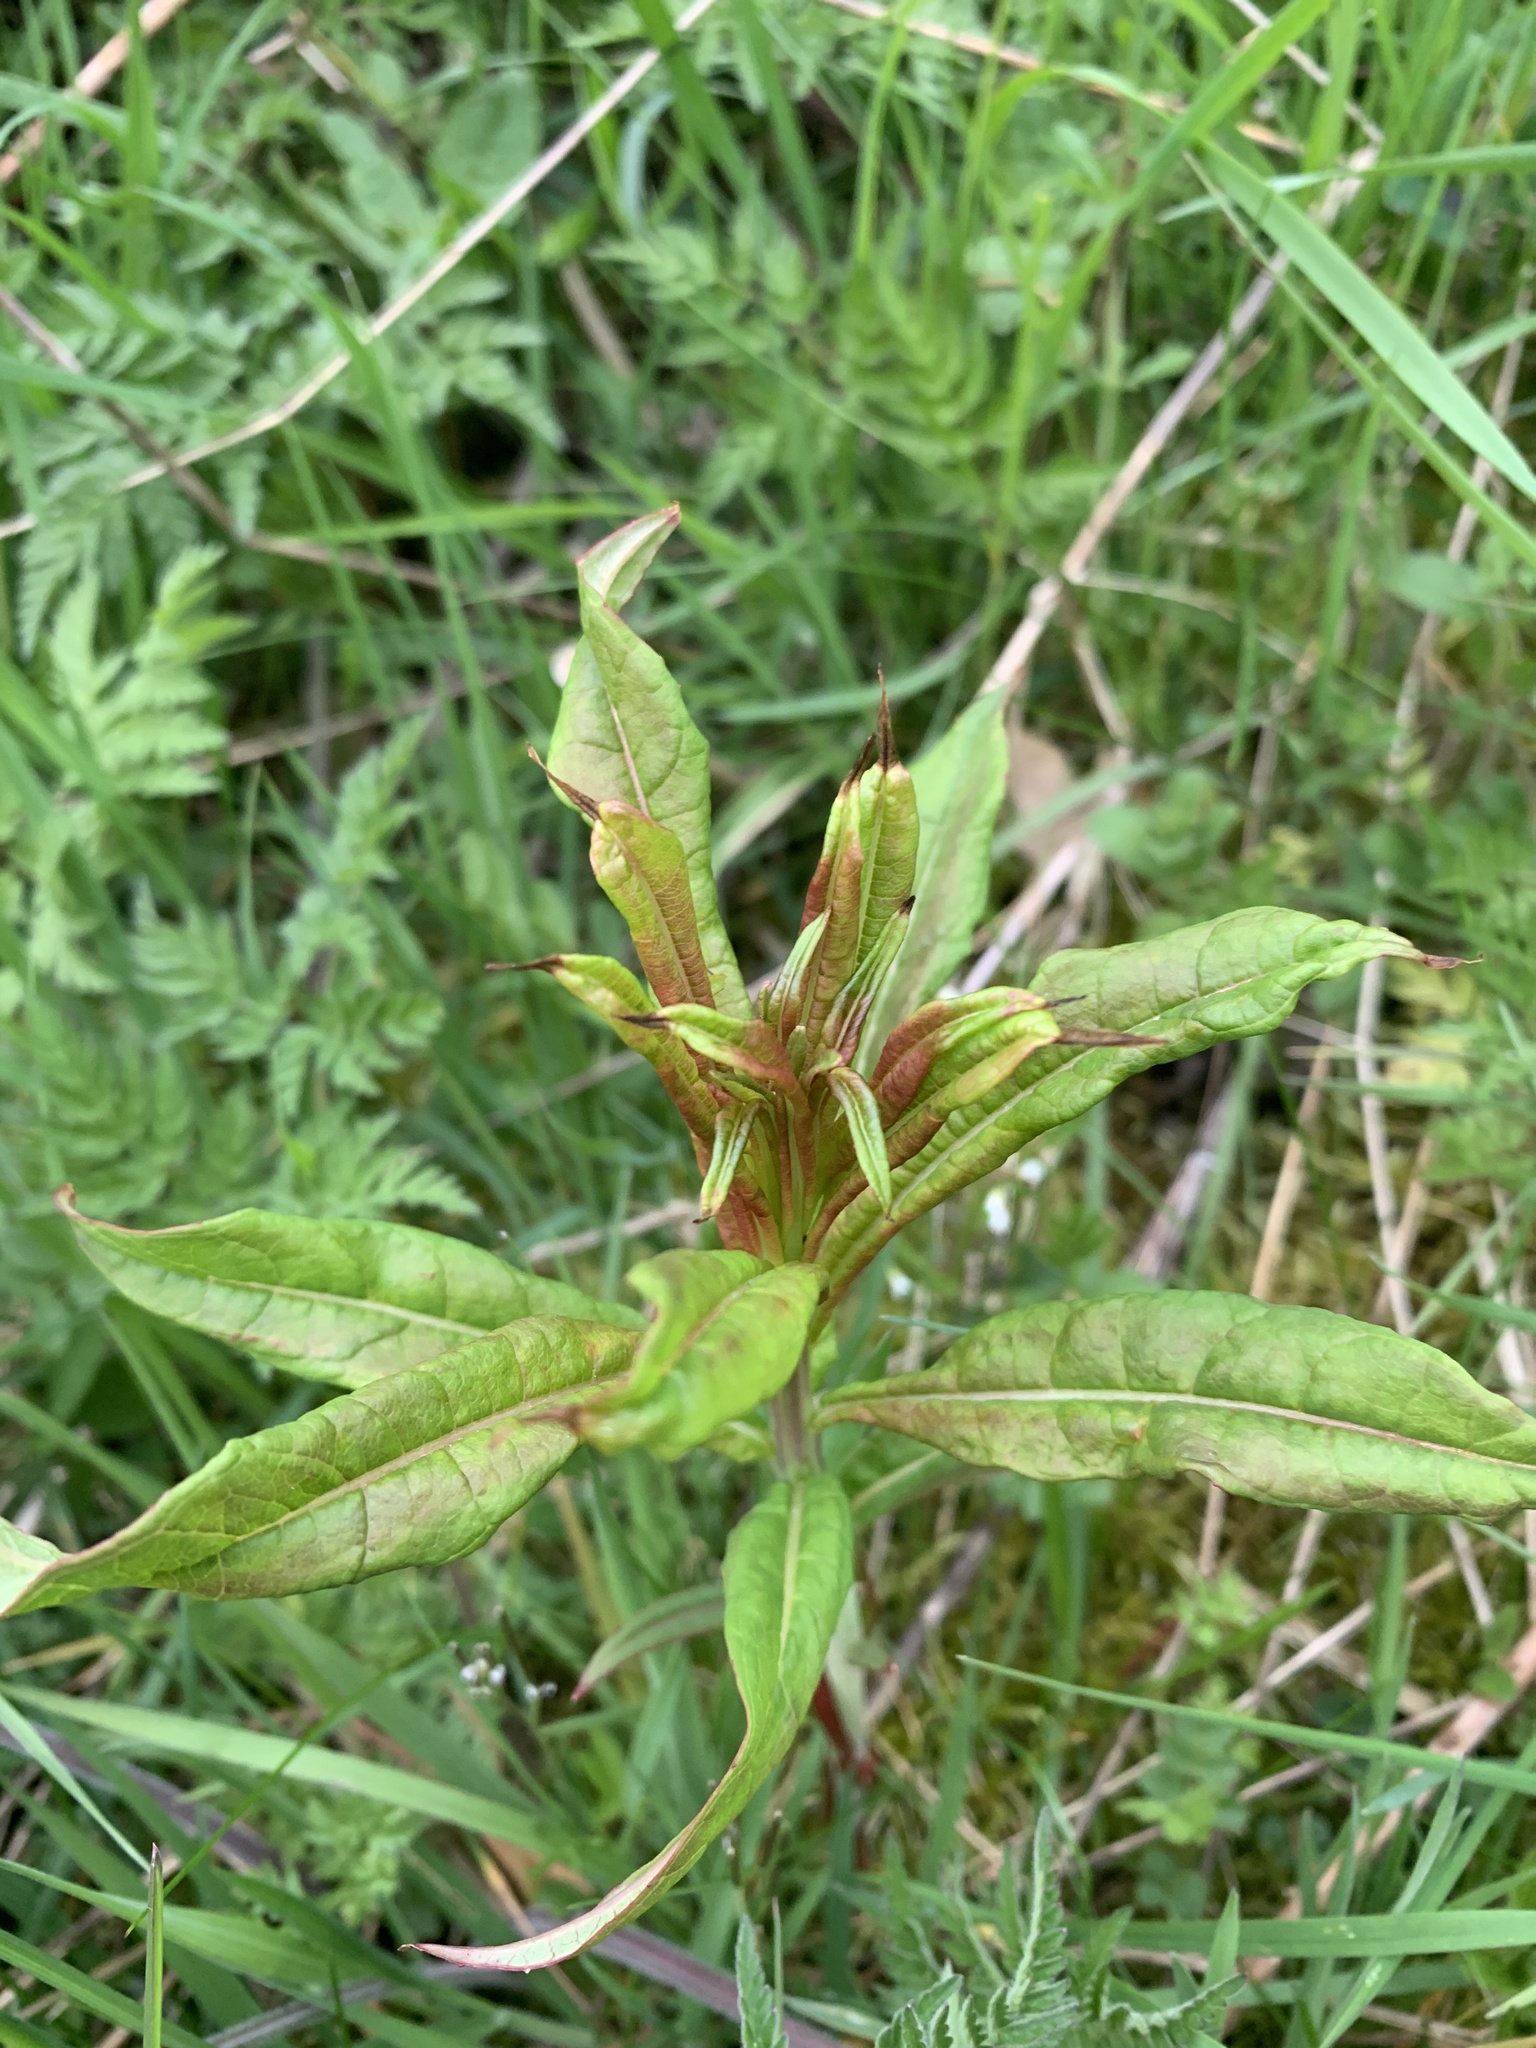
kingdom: Plantae
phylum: Tracheophyta
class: Magnoliopsida
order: Myrtales
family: Onagraceae
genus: Chamaenerion
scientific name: Chamaenerion angustifolium
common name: Fireweed
